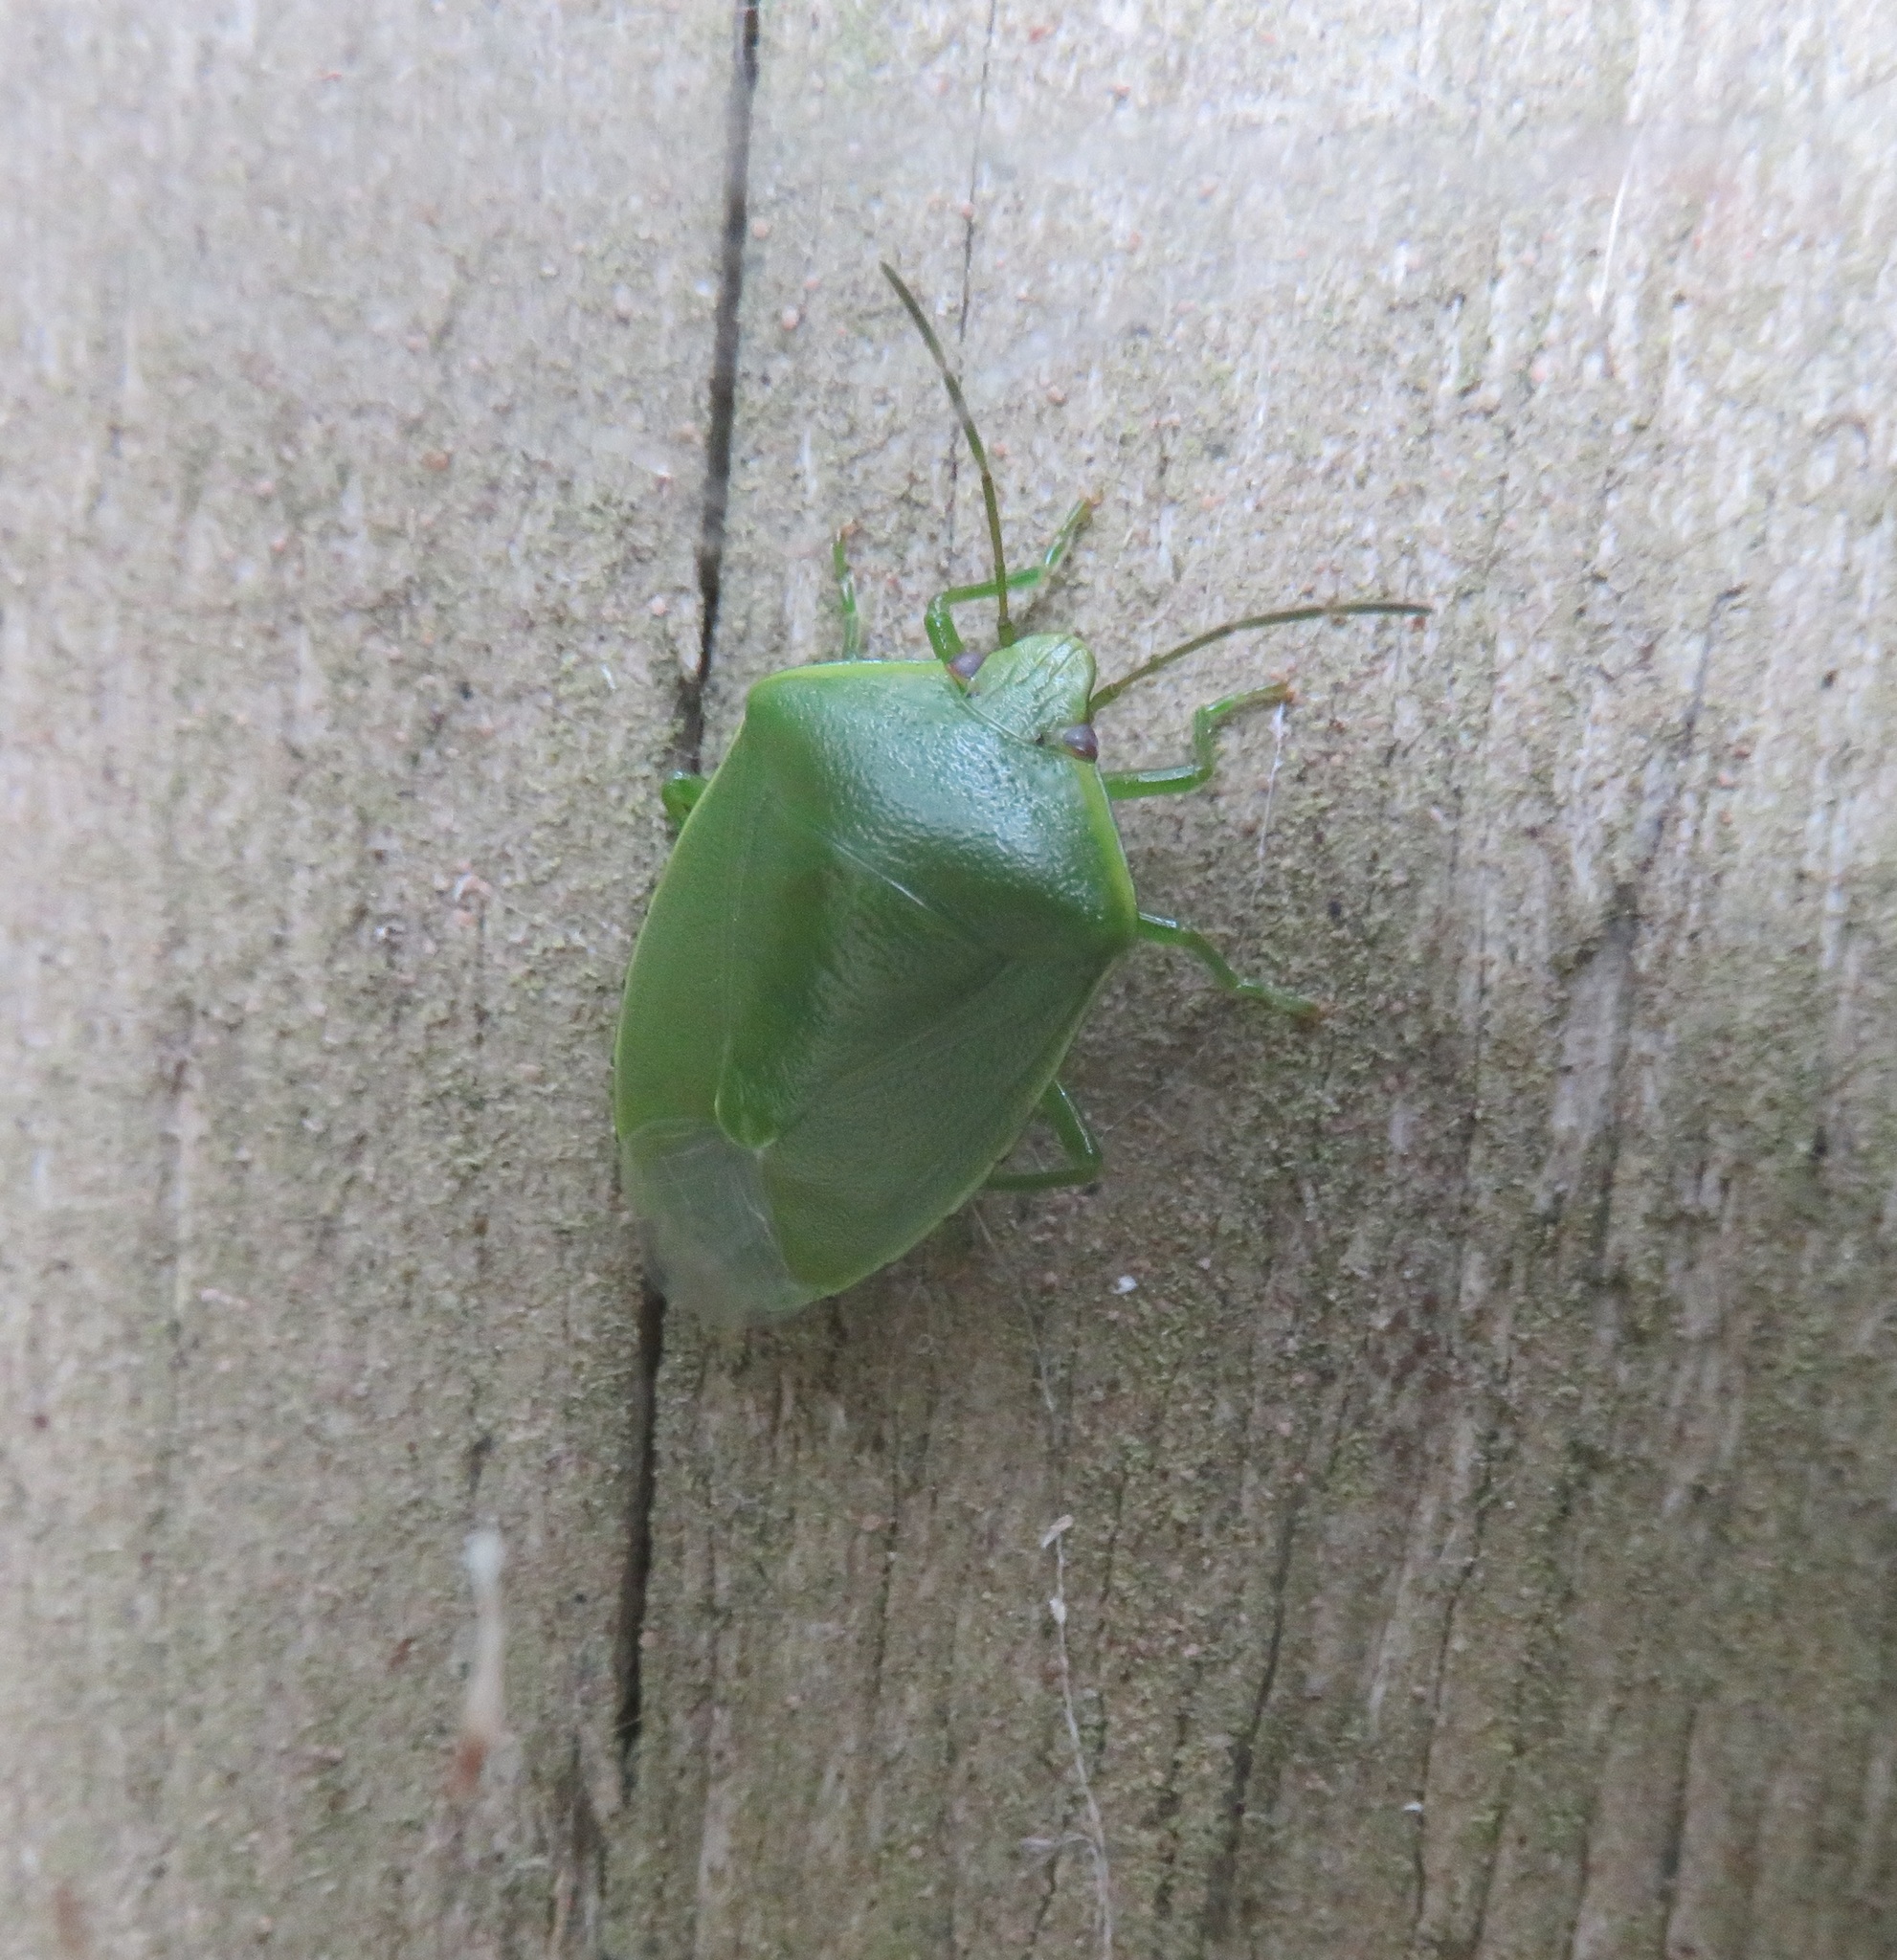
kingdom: Animalia
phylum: Arthropoda
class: Insecta
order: Hemiptera
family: Pentatomidae
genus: Glaucias
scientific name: Glaucias amyota
